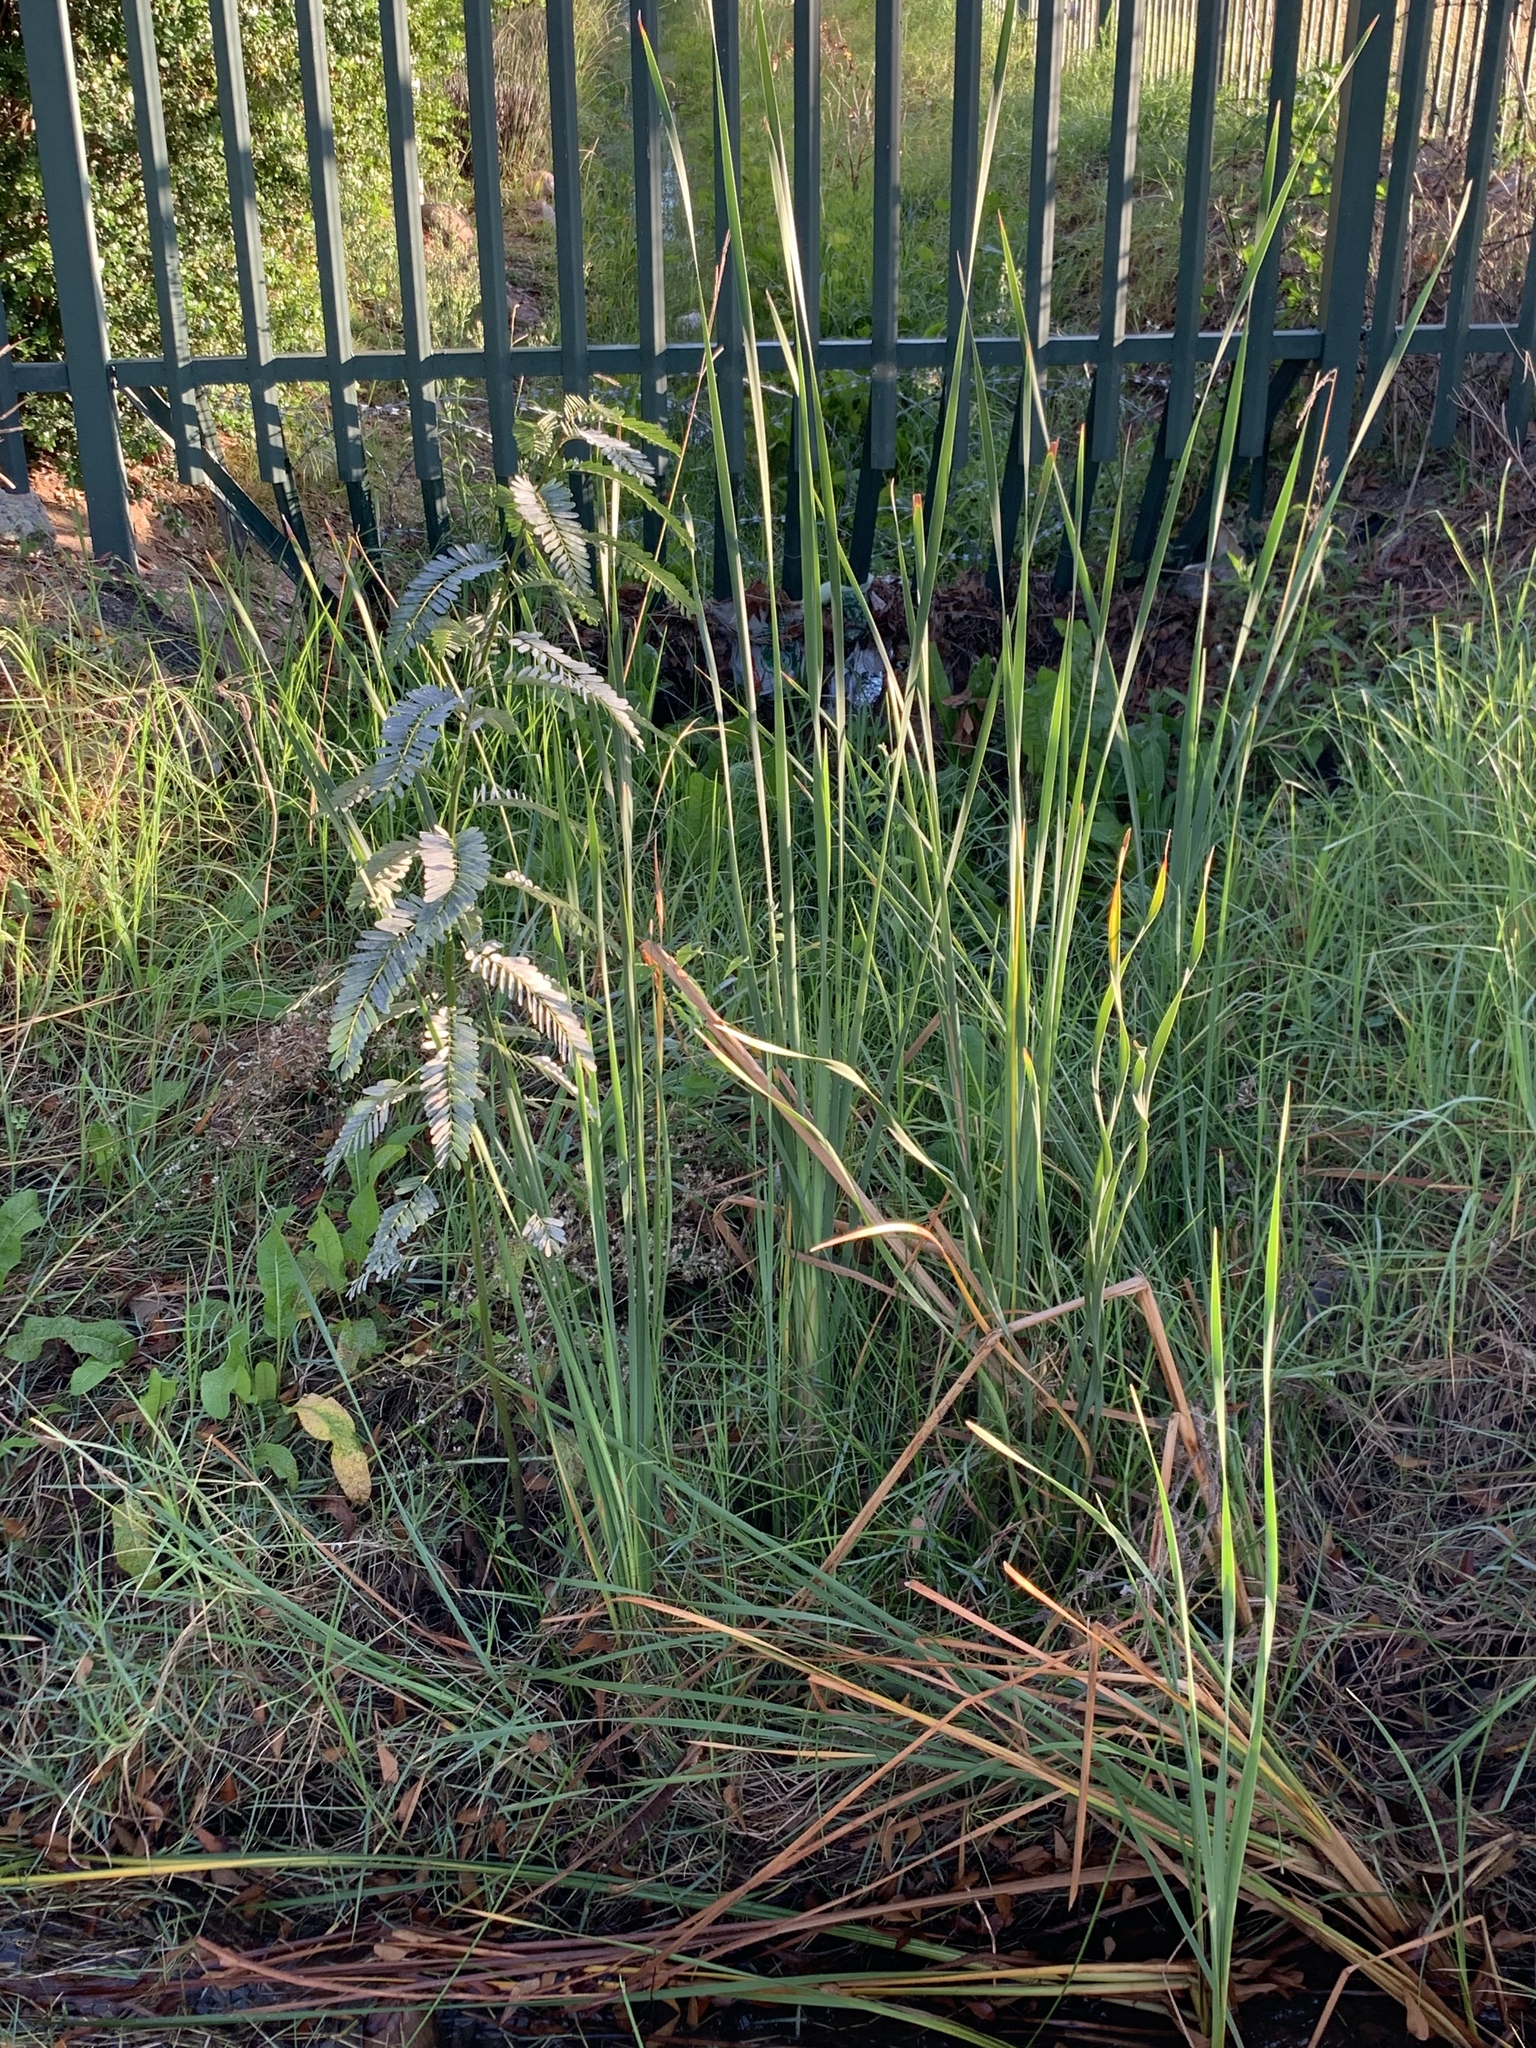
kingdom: Plantae
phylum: Tracheophyta
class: Magnoliopsida
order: Fabales
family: Fabaceae
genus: Sesbania
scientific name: Sesbania punicea
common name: Rattlebox
